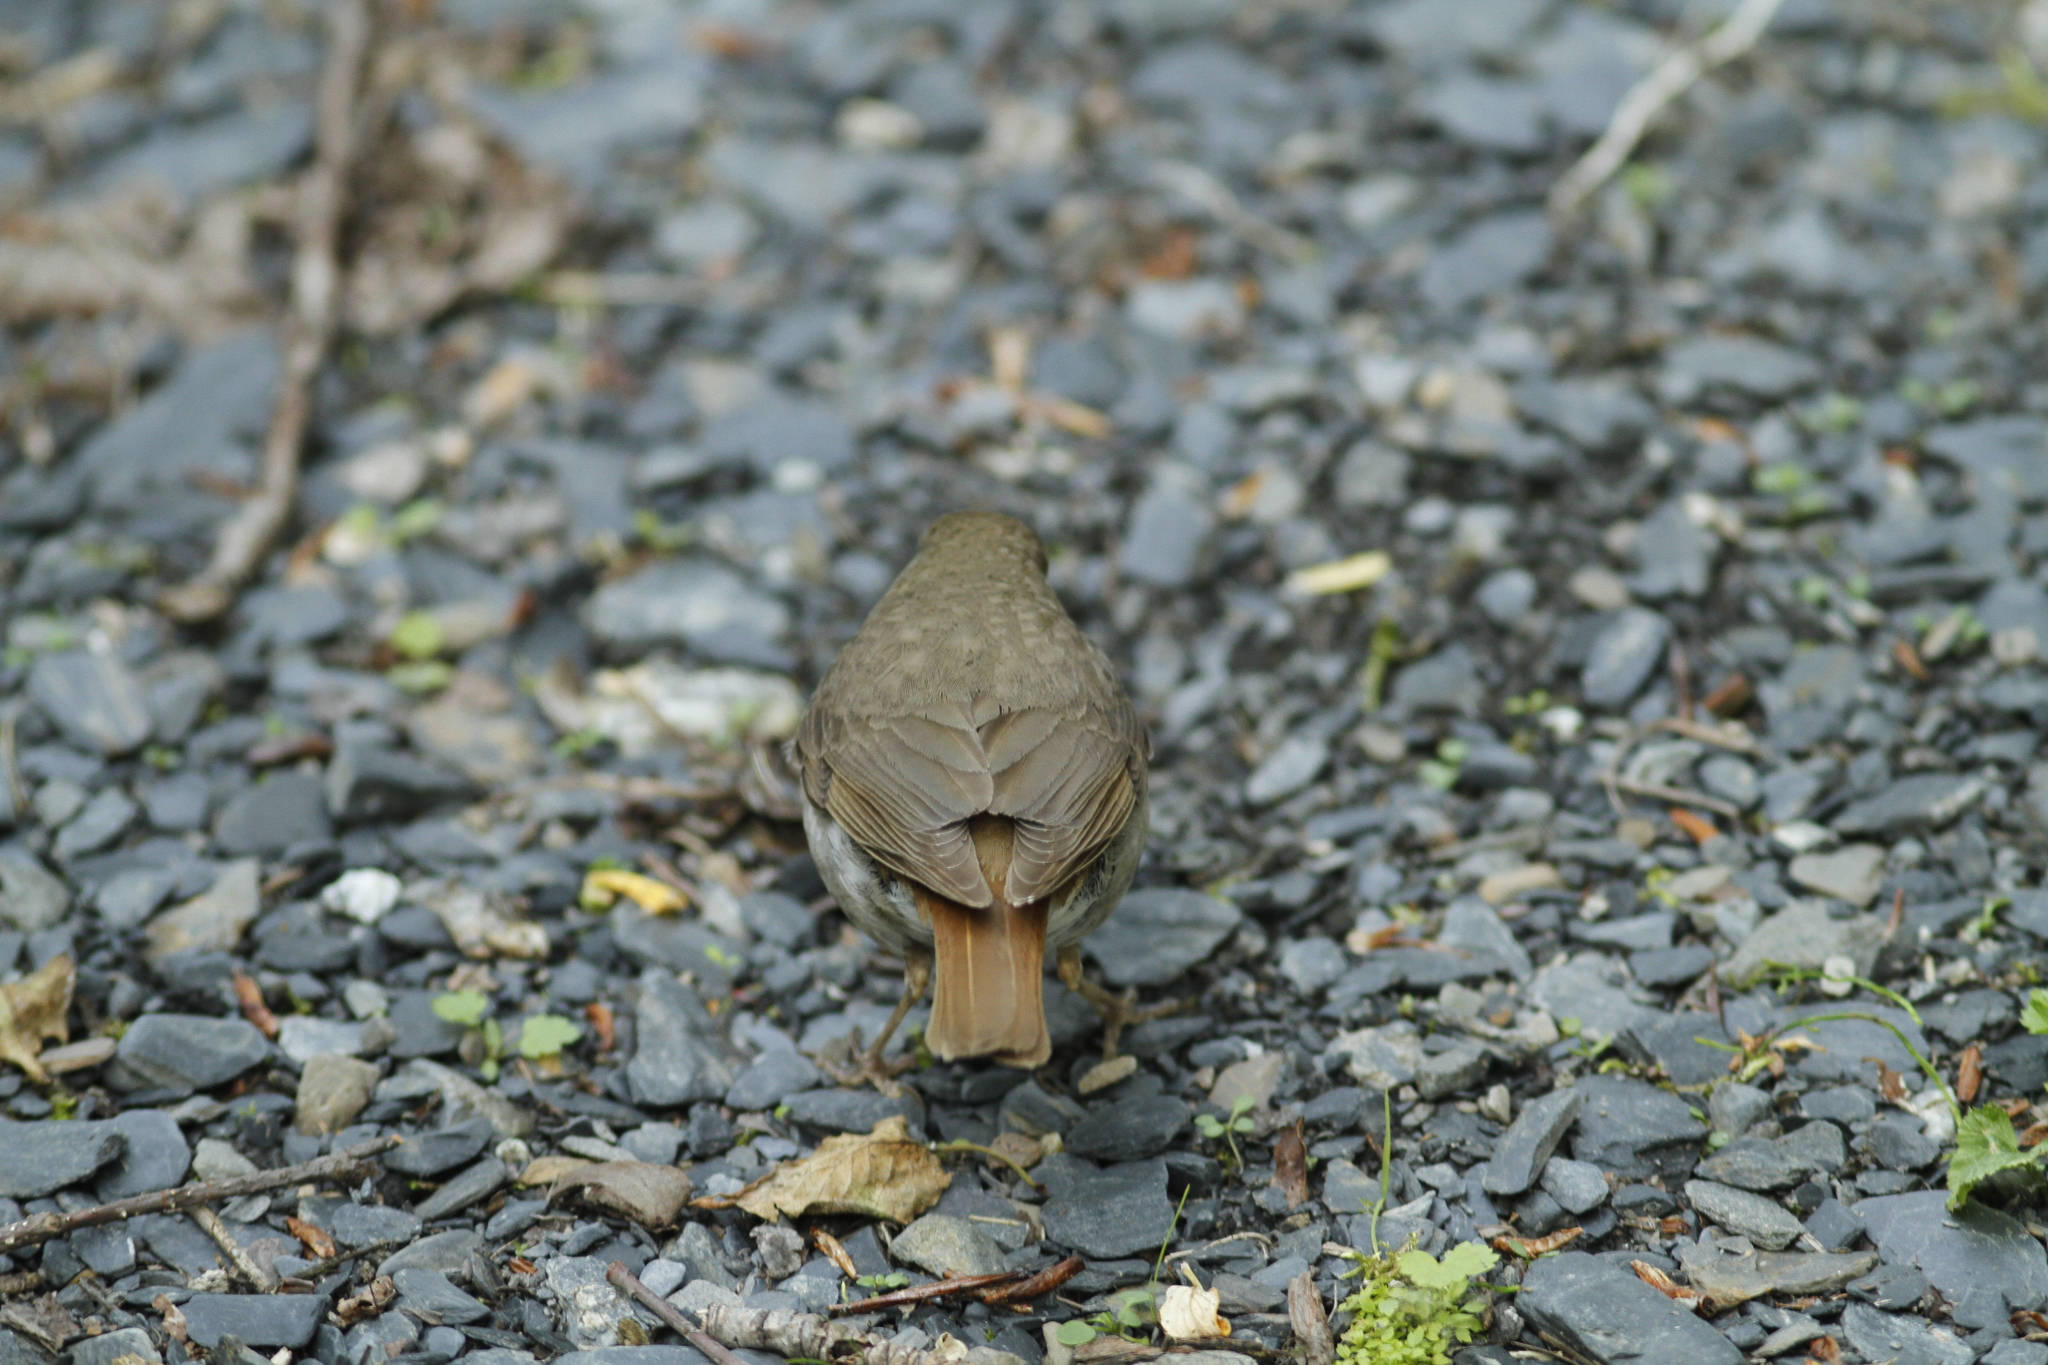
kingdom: Animalia
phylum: Chordata
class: Aves
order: Passeriformes
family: Turdidae
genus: Catharus
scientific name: Catharus guttatus
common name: Hermit thrush
